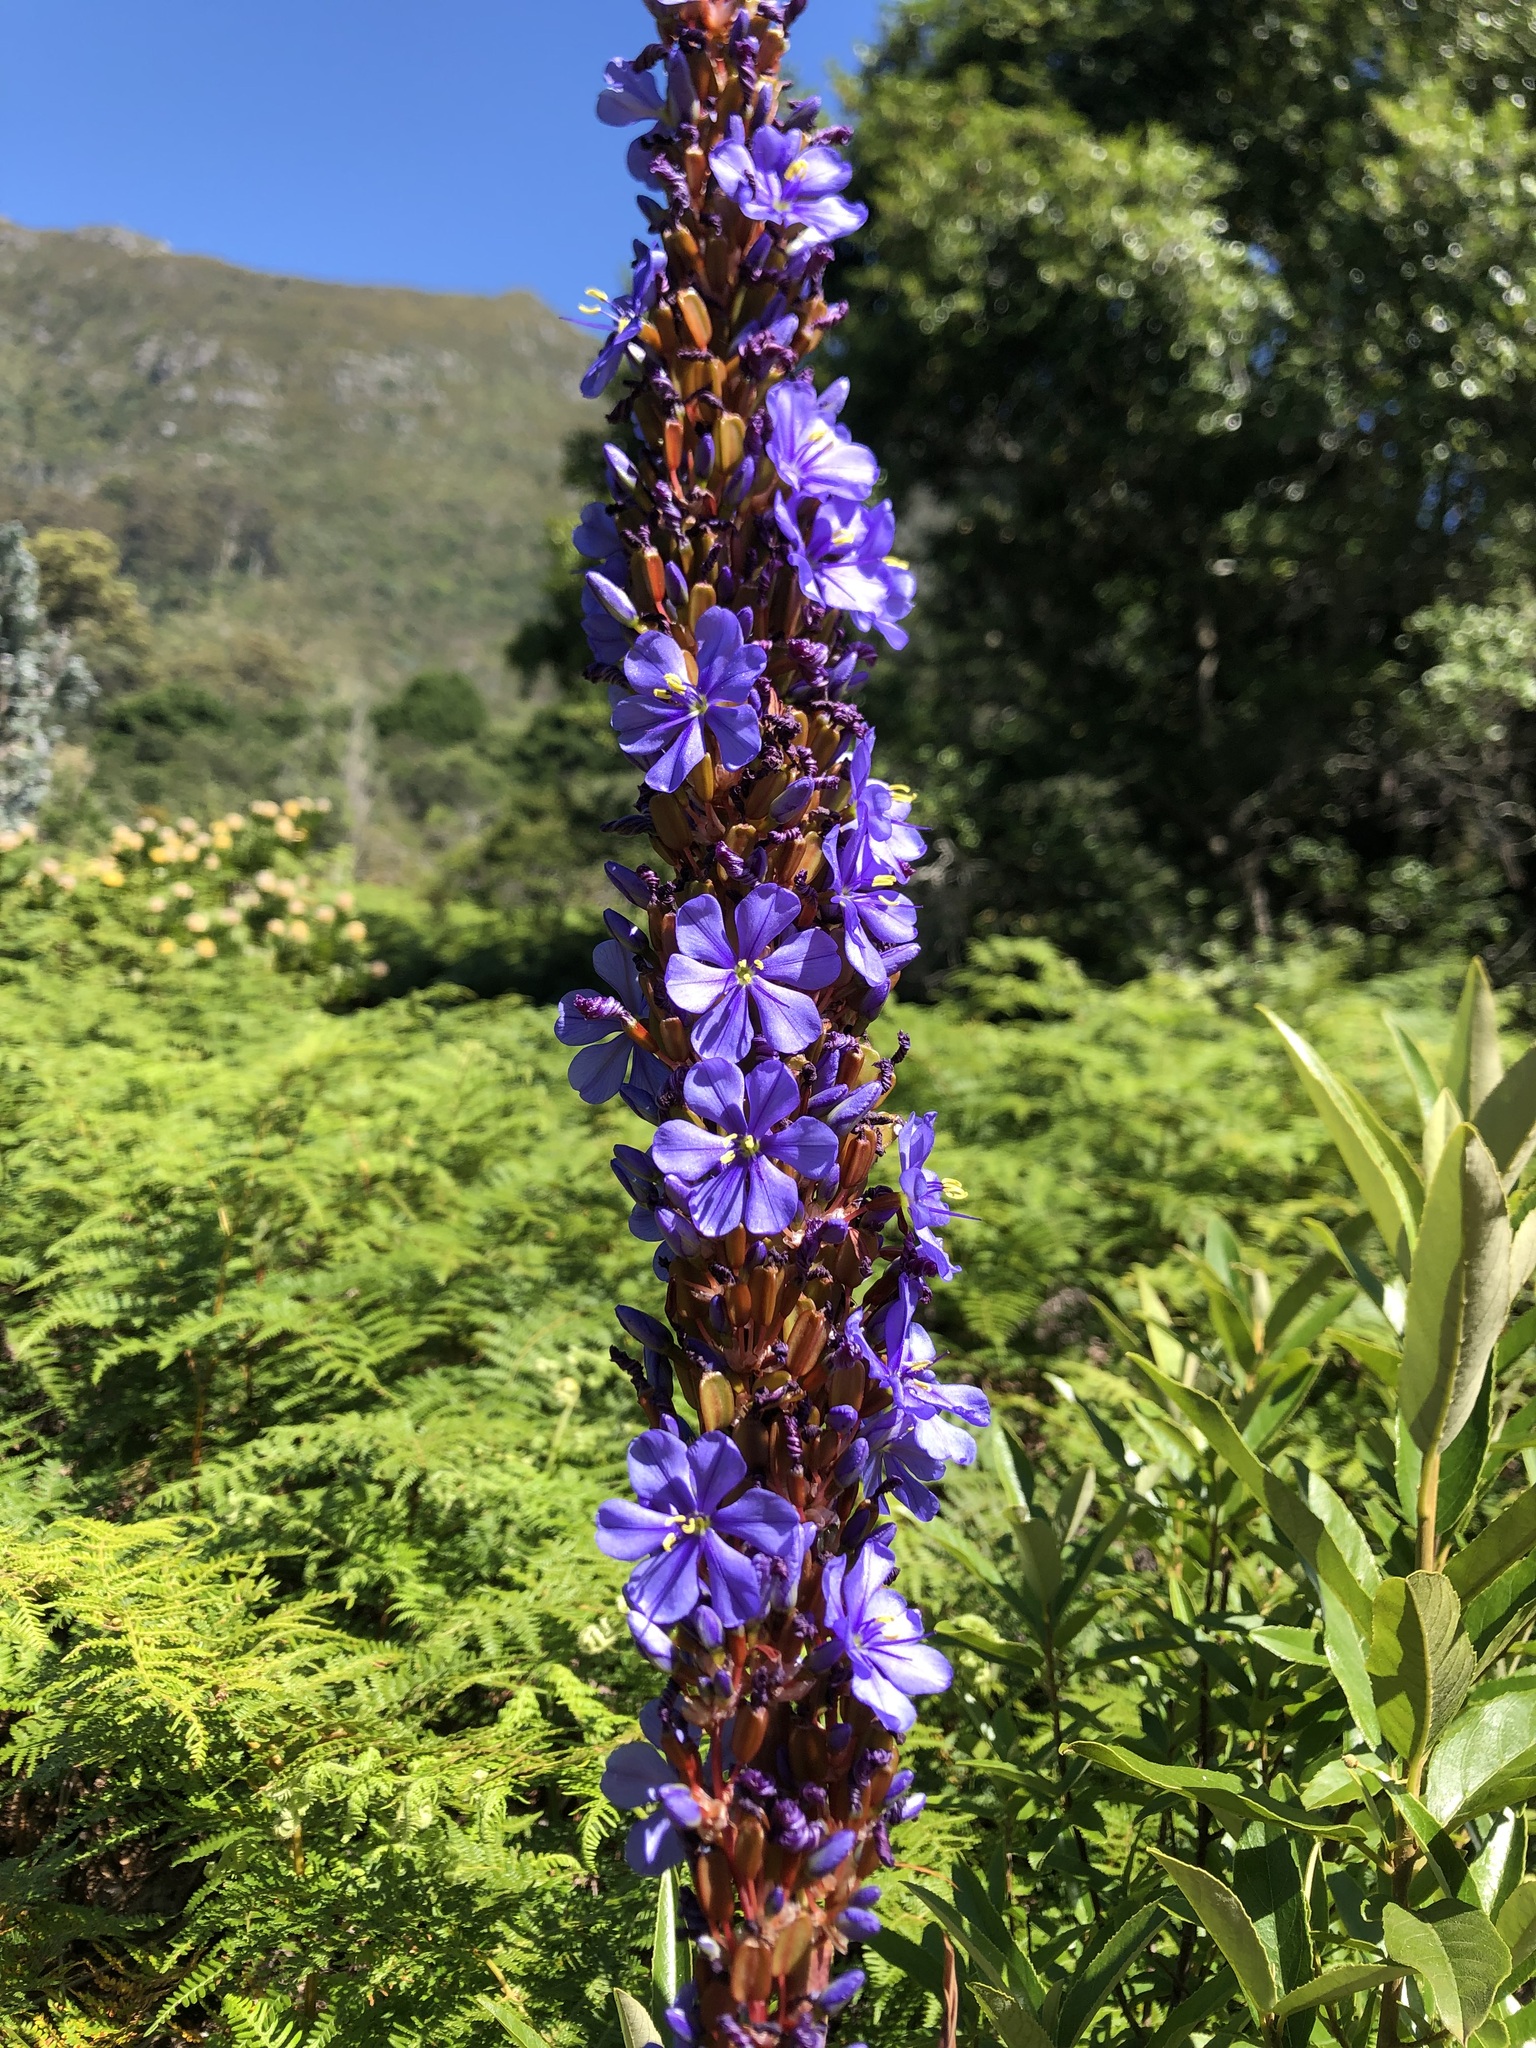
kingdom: Plantae
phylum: Tracheophyta
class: Liliopsida
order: Asparagales
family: Iridaceae
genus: Aristea
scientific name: Aristea capitata
